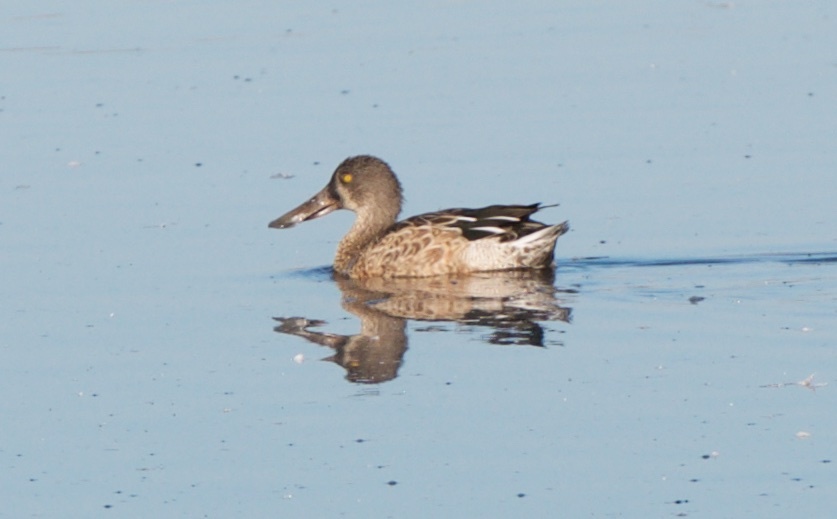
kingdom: Animalia
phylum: Chordata
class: Aves
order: Anseriformes
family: Anatidae
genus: Spatula
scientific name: Spatula clypeata
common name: Northern shoveler
